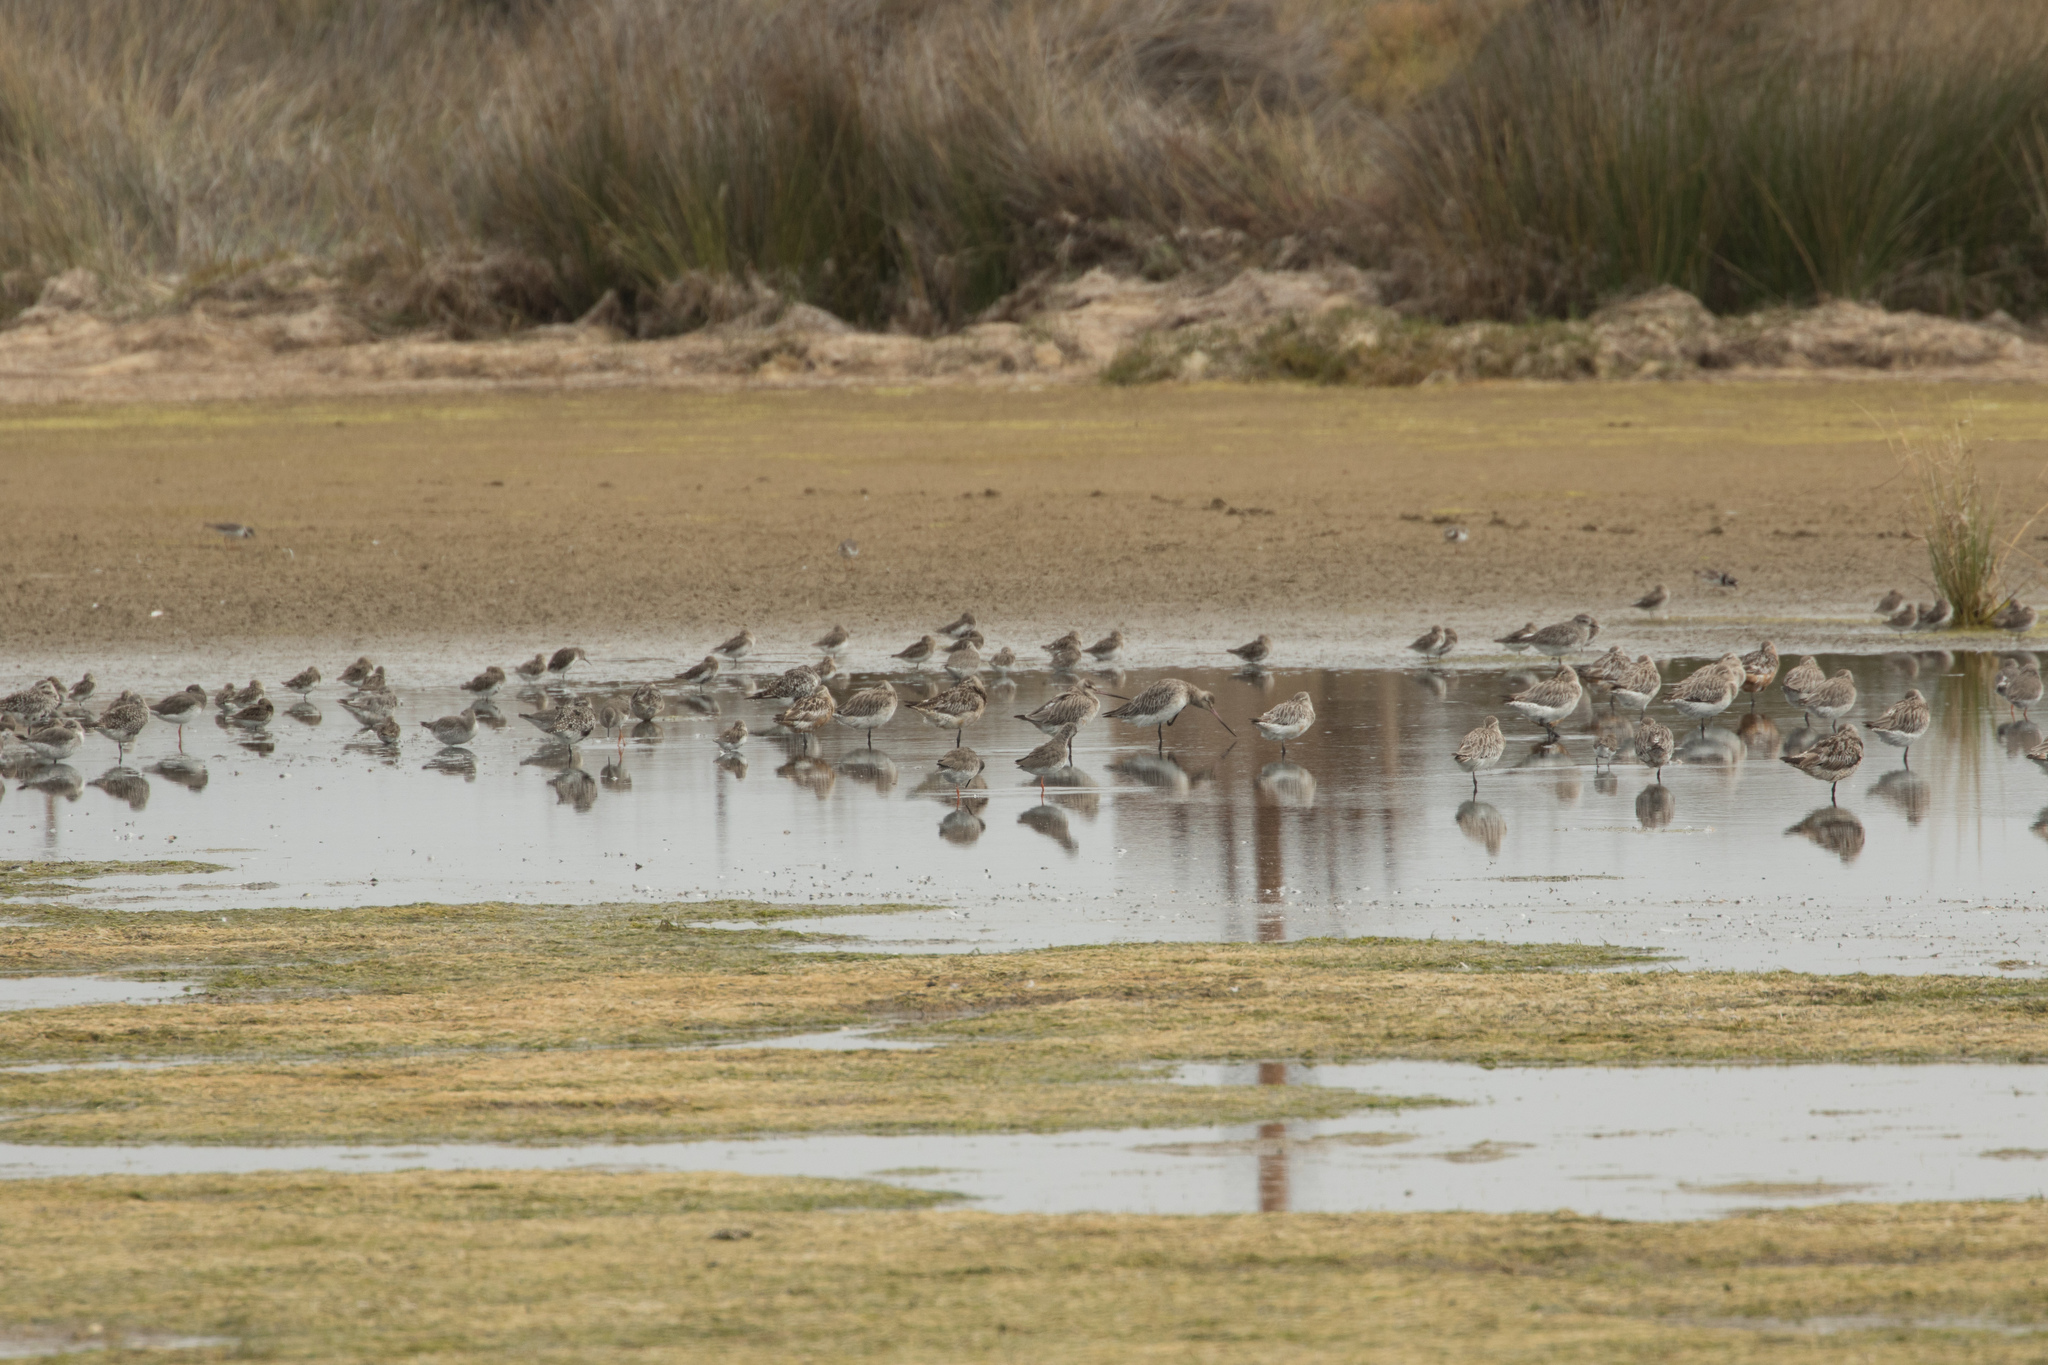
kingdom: Animalia
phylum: Chordata
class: Aves
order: Charadriiformes
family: Scolopacidae
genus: Limosa
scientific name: Limosa limosa
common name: Black-tailed godwit
